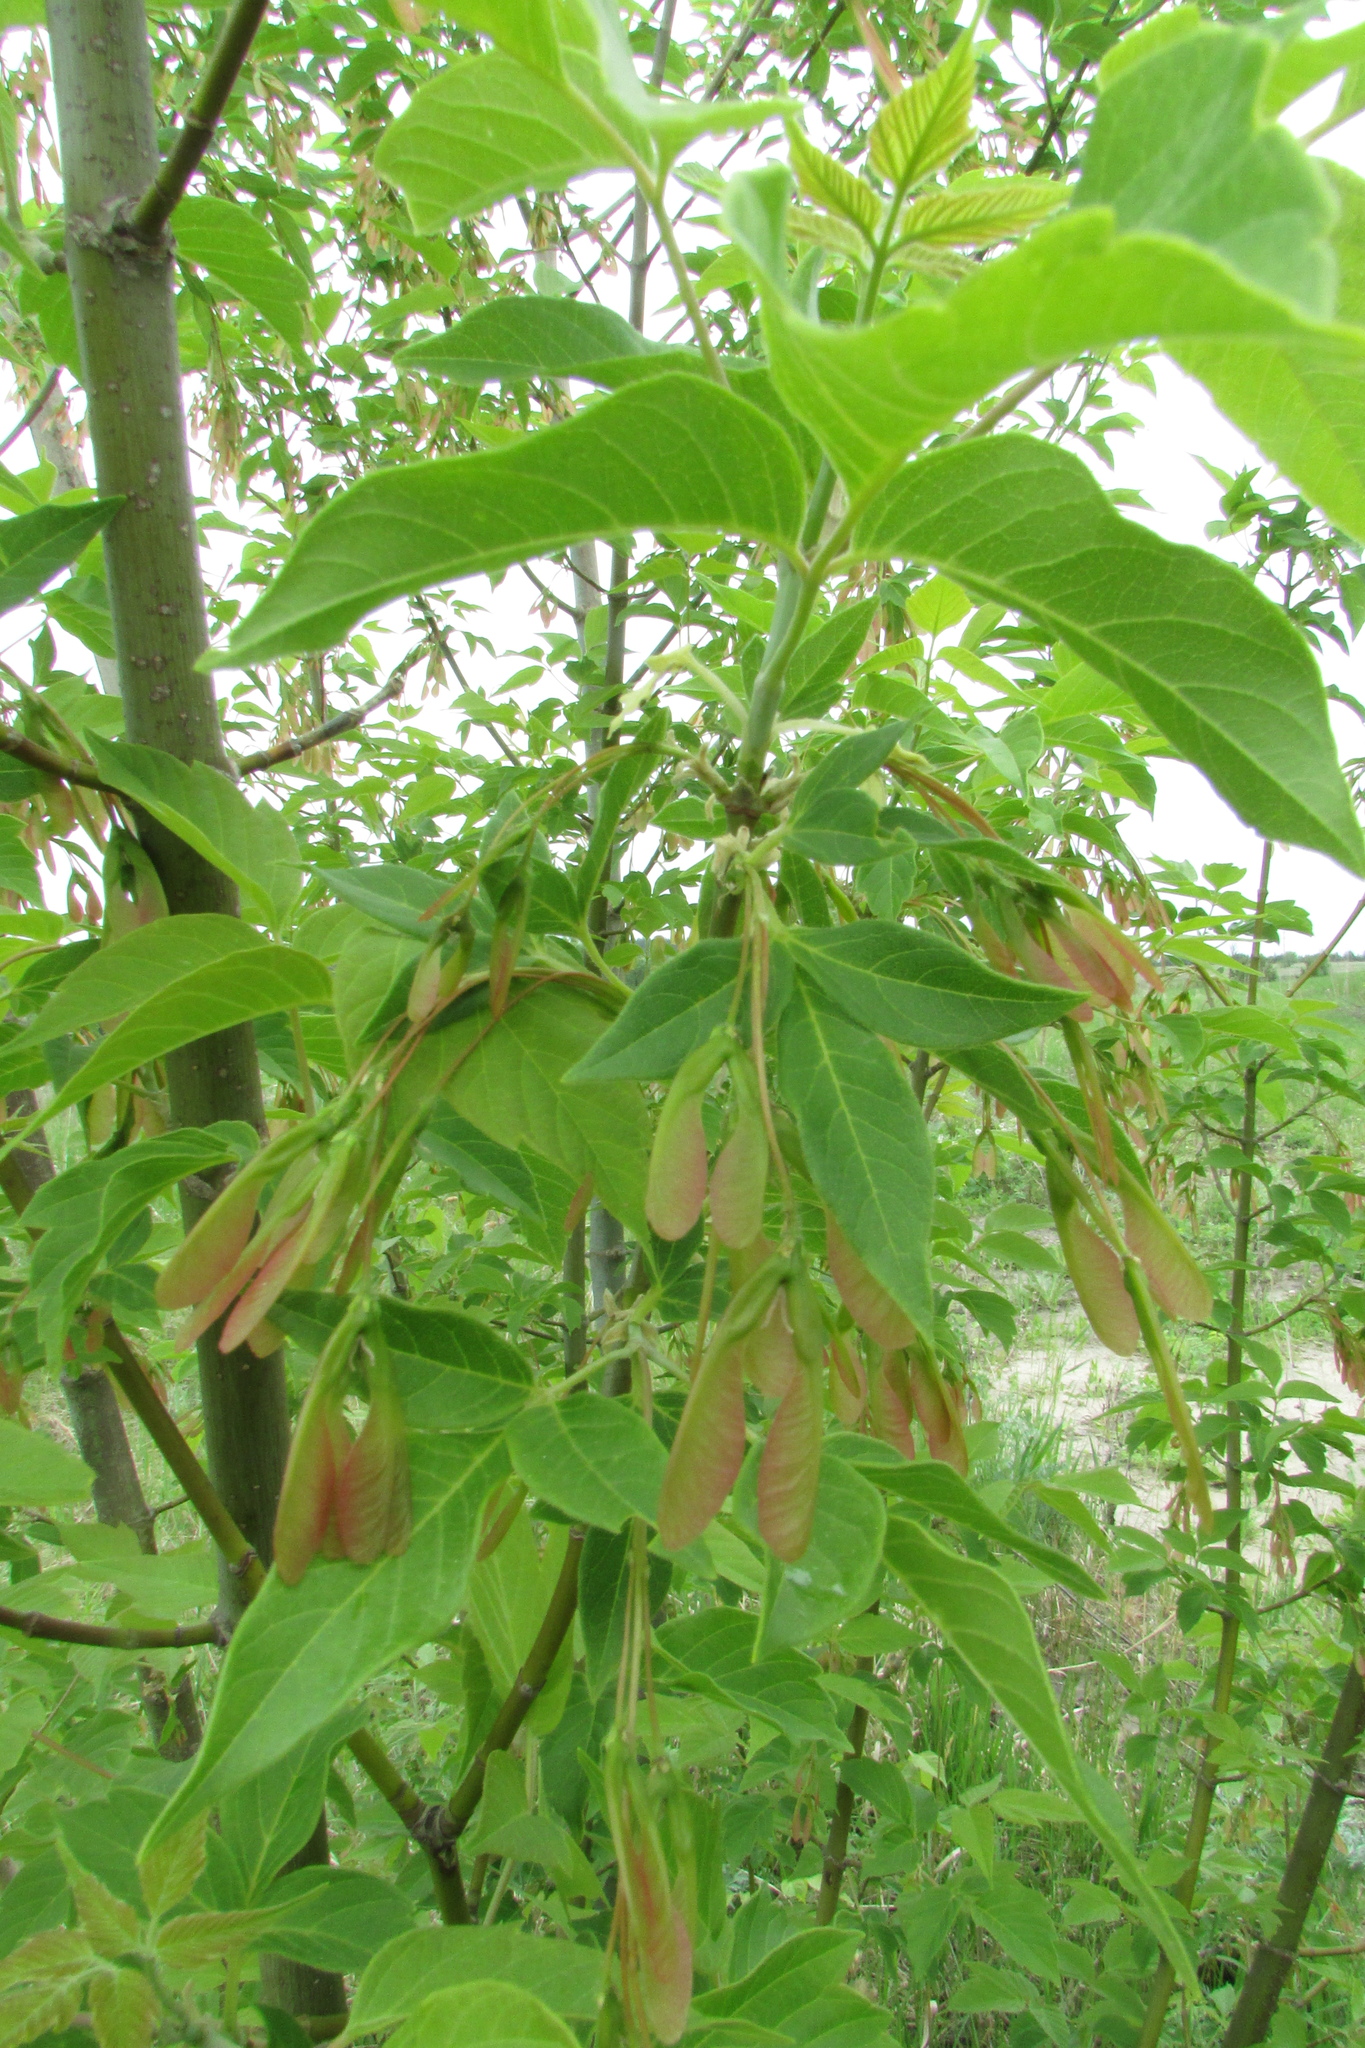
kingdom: Plantae
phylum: Tracheophyta
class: Magnoliopsida
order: Sapindales
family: Sapindaceae
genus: Acer
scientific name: Acer negundo
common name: Ashleaf maple
